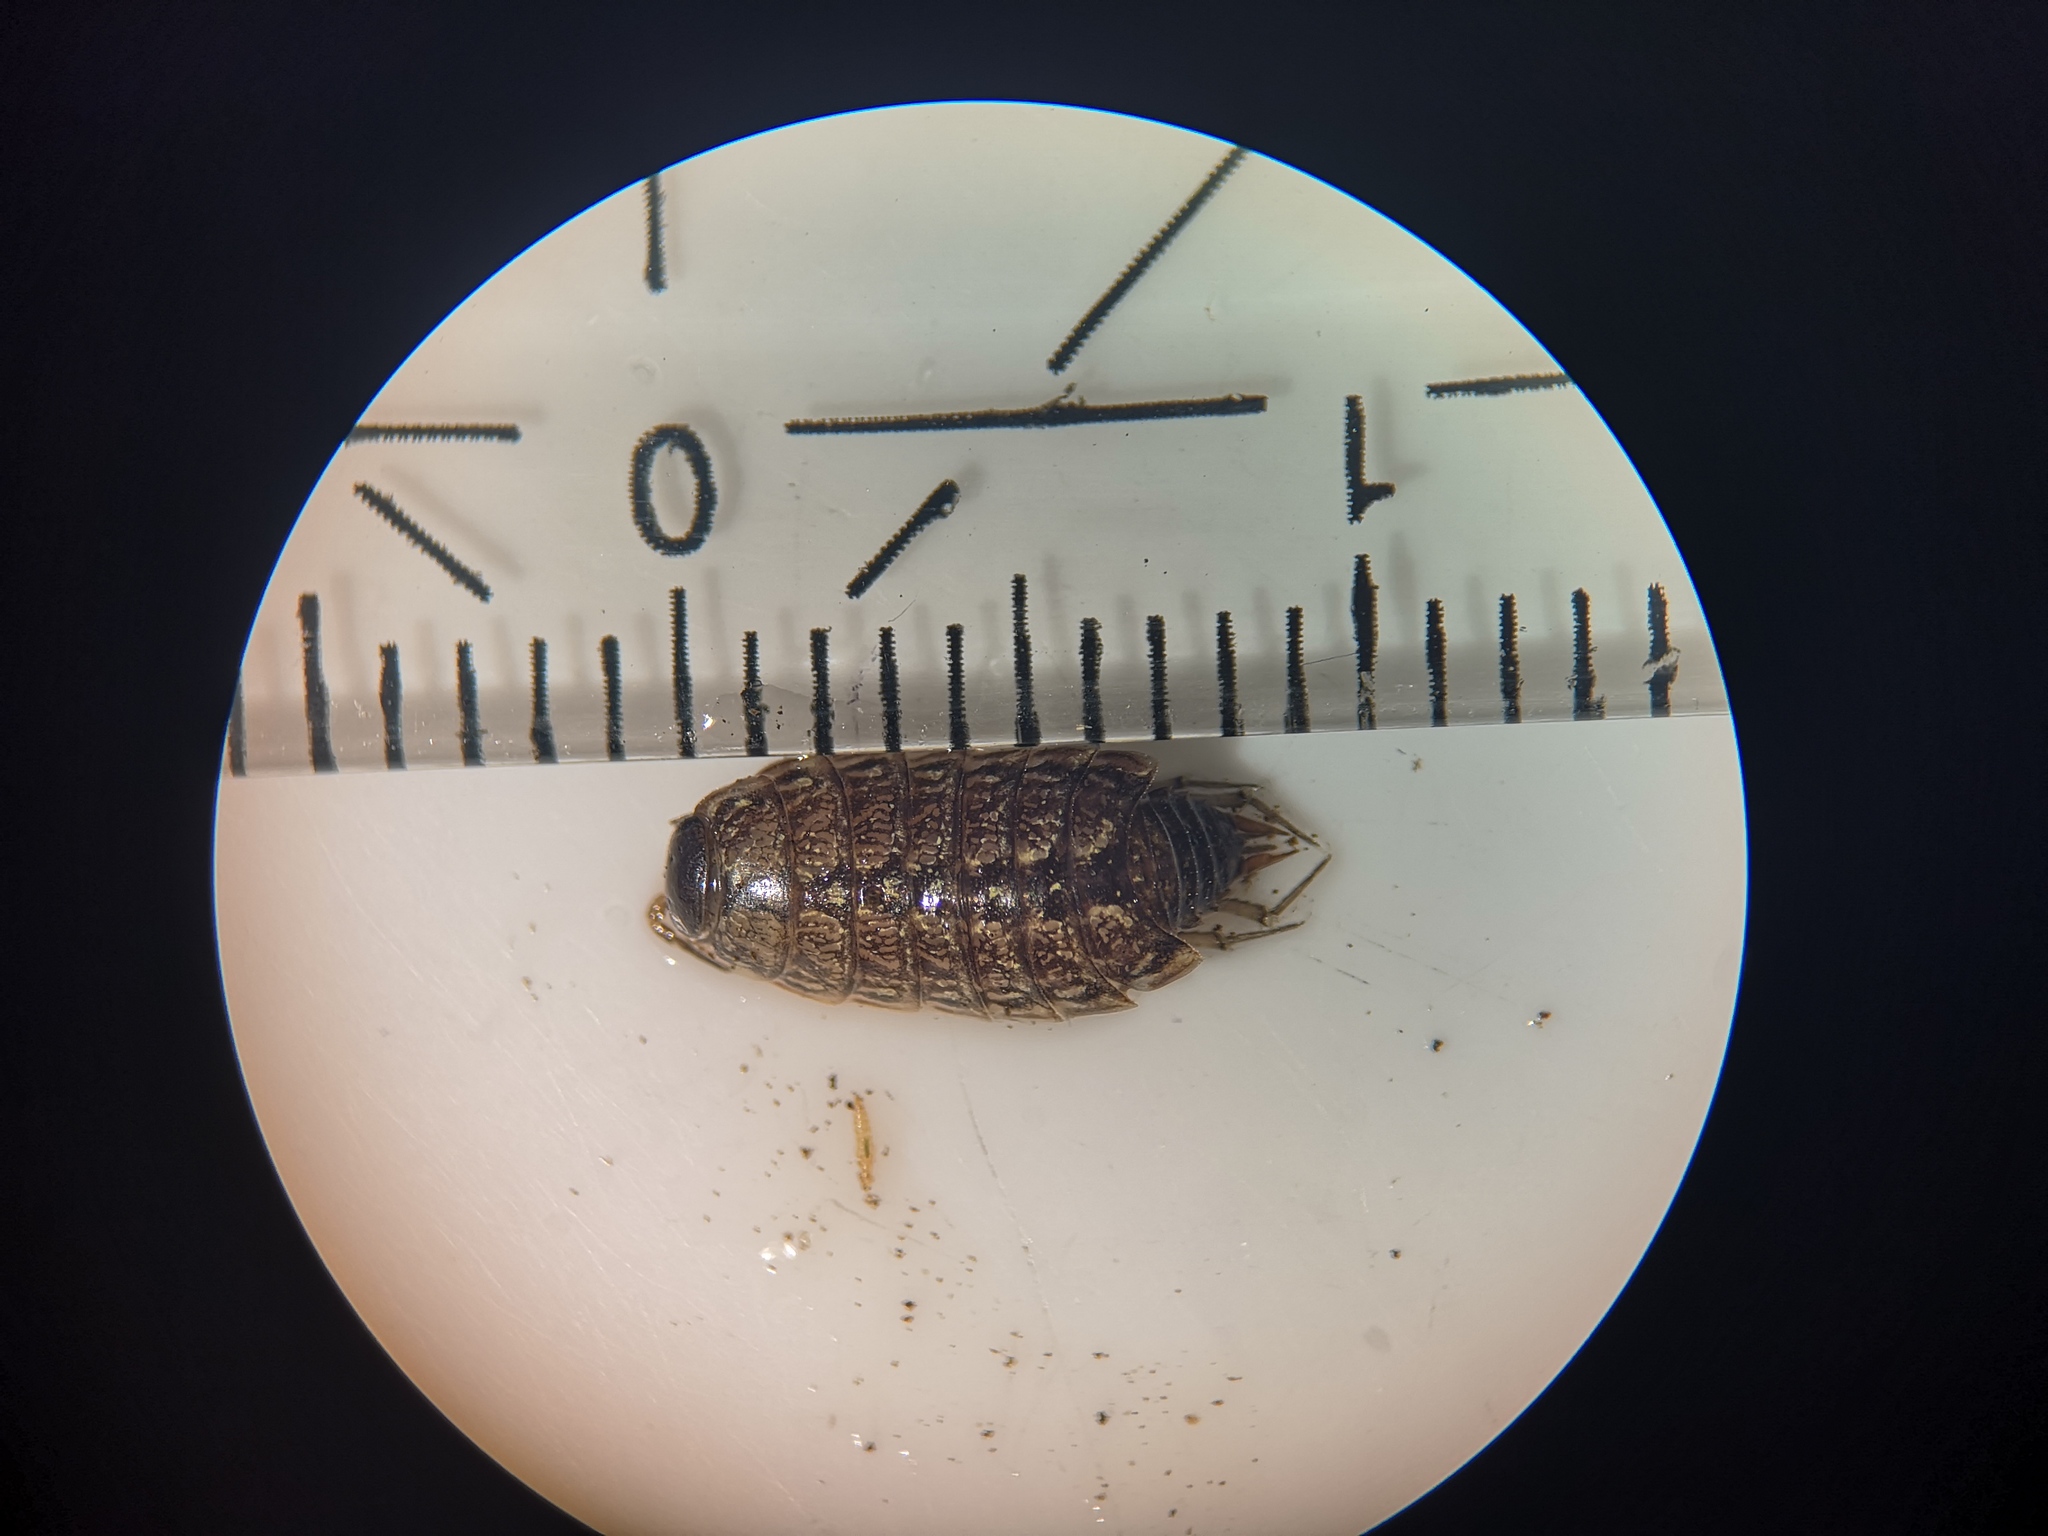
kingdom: Animalia
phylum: Arthropoda
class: Malacostraca
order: Isopoda
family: Philosciidae
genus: Philoscia
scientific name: Philoscia muscorum
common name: Common striped woodlouse
